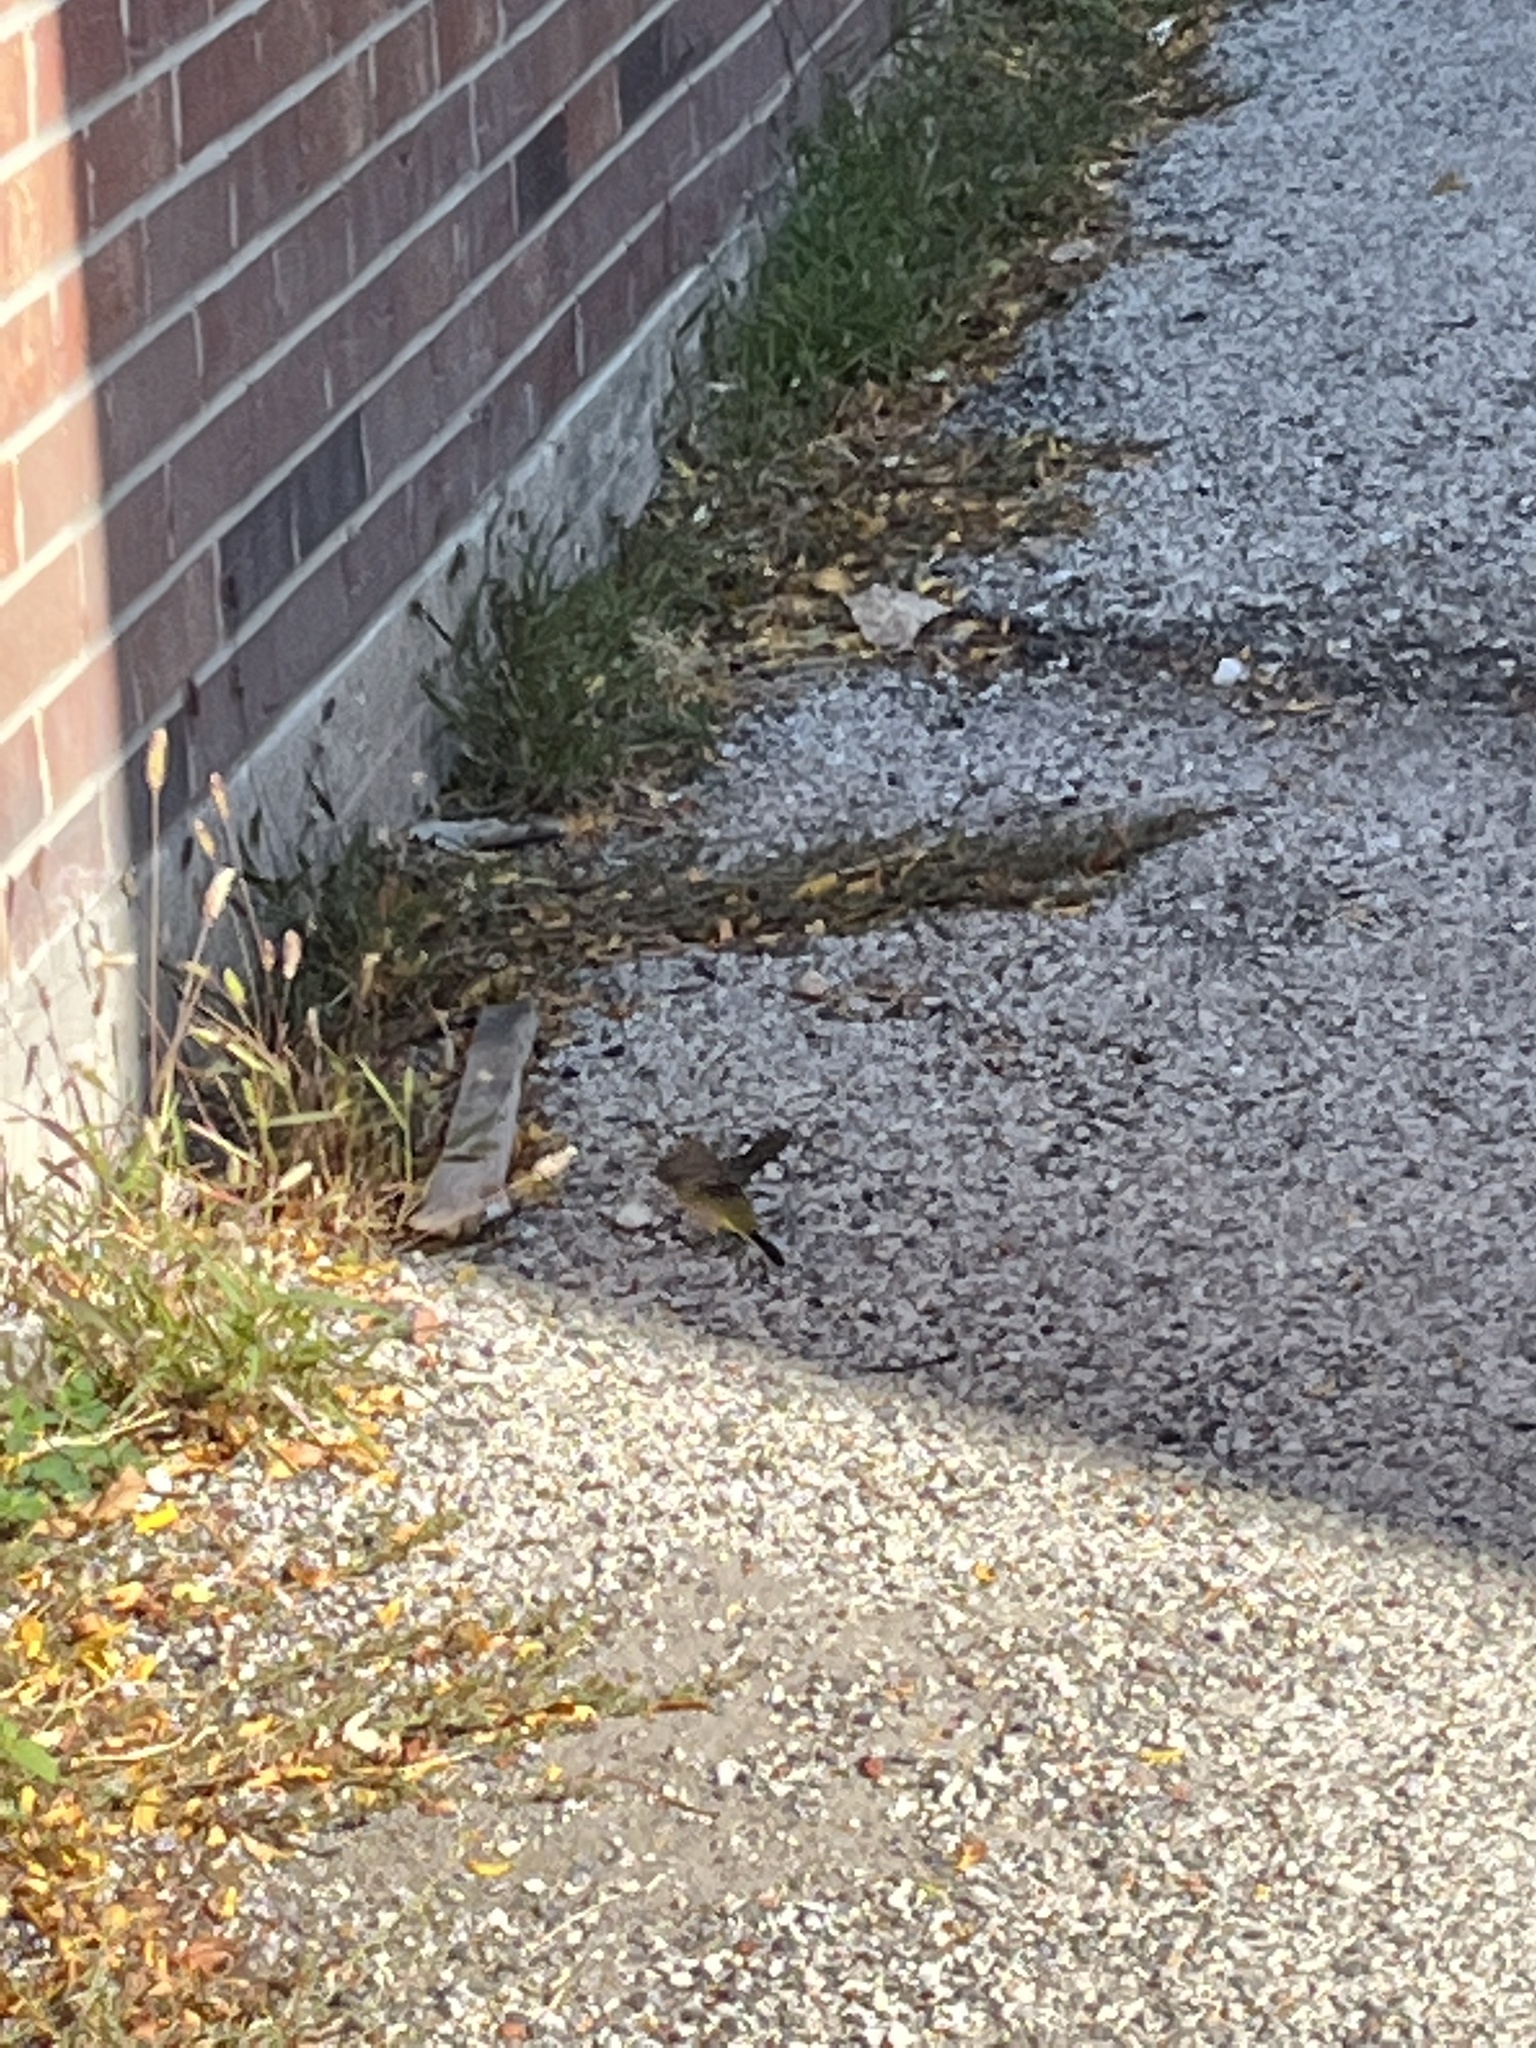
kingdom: Animalia
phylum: Chordata
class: Aves
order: Passeriformes
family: Parulidae
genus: Setophaga
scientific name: Setophaga palmarum
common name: Palm warbler
